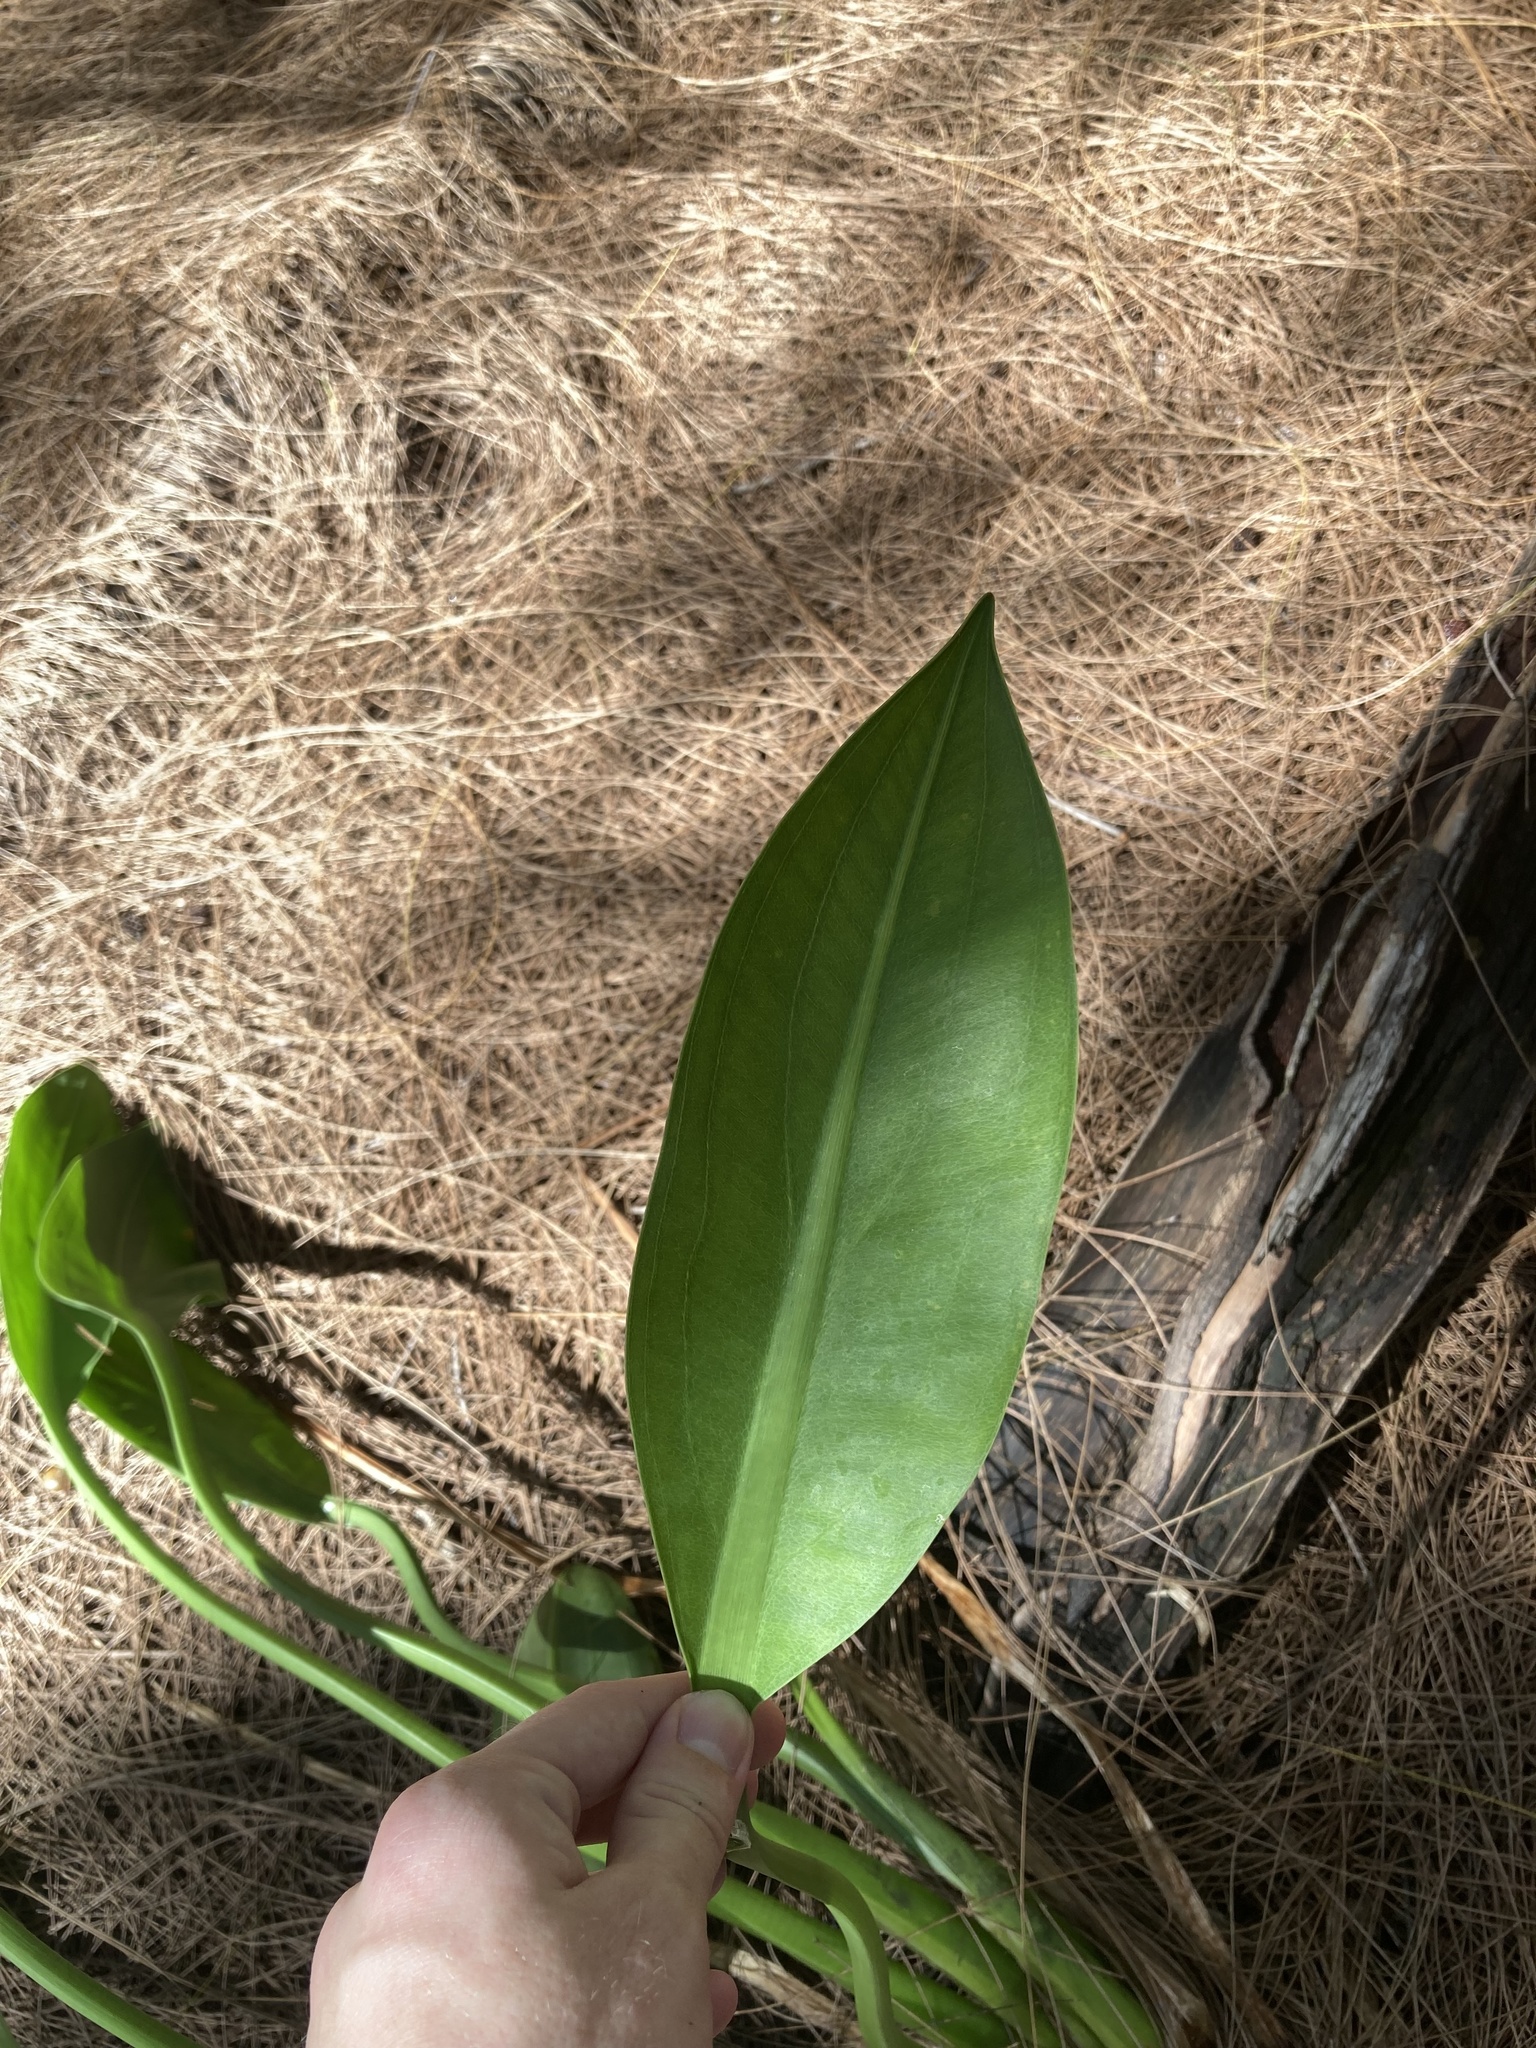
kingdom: Plantae
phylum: Tracheophyta
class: Liliopsida
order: Alismatales
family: Alismataceae
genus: Sagittaria
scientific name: Sagittaria lancifolia
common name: Lance-leaf arrowhead
